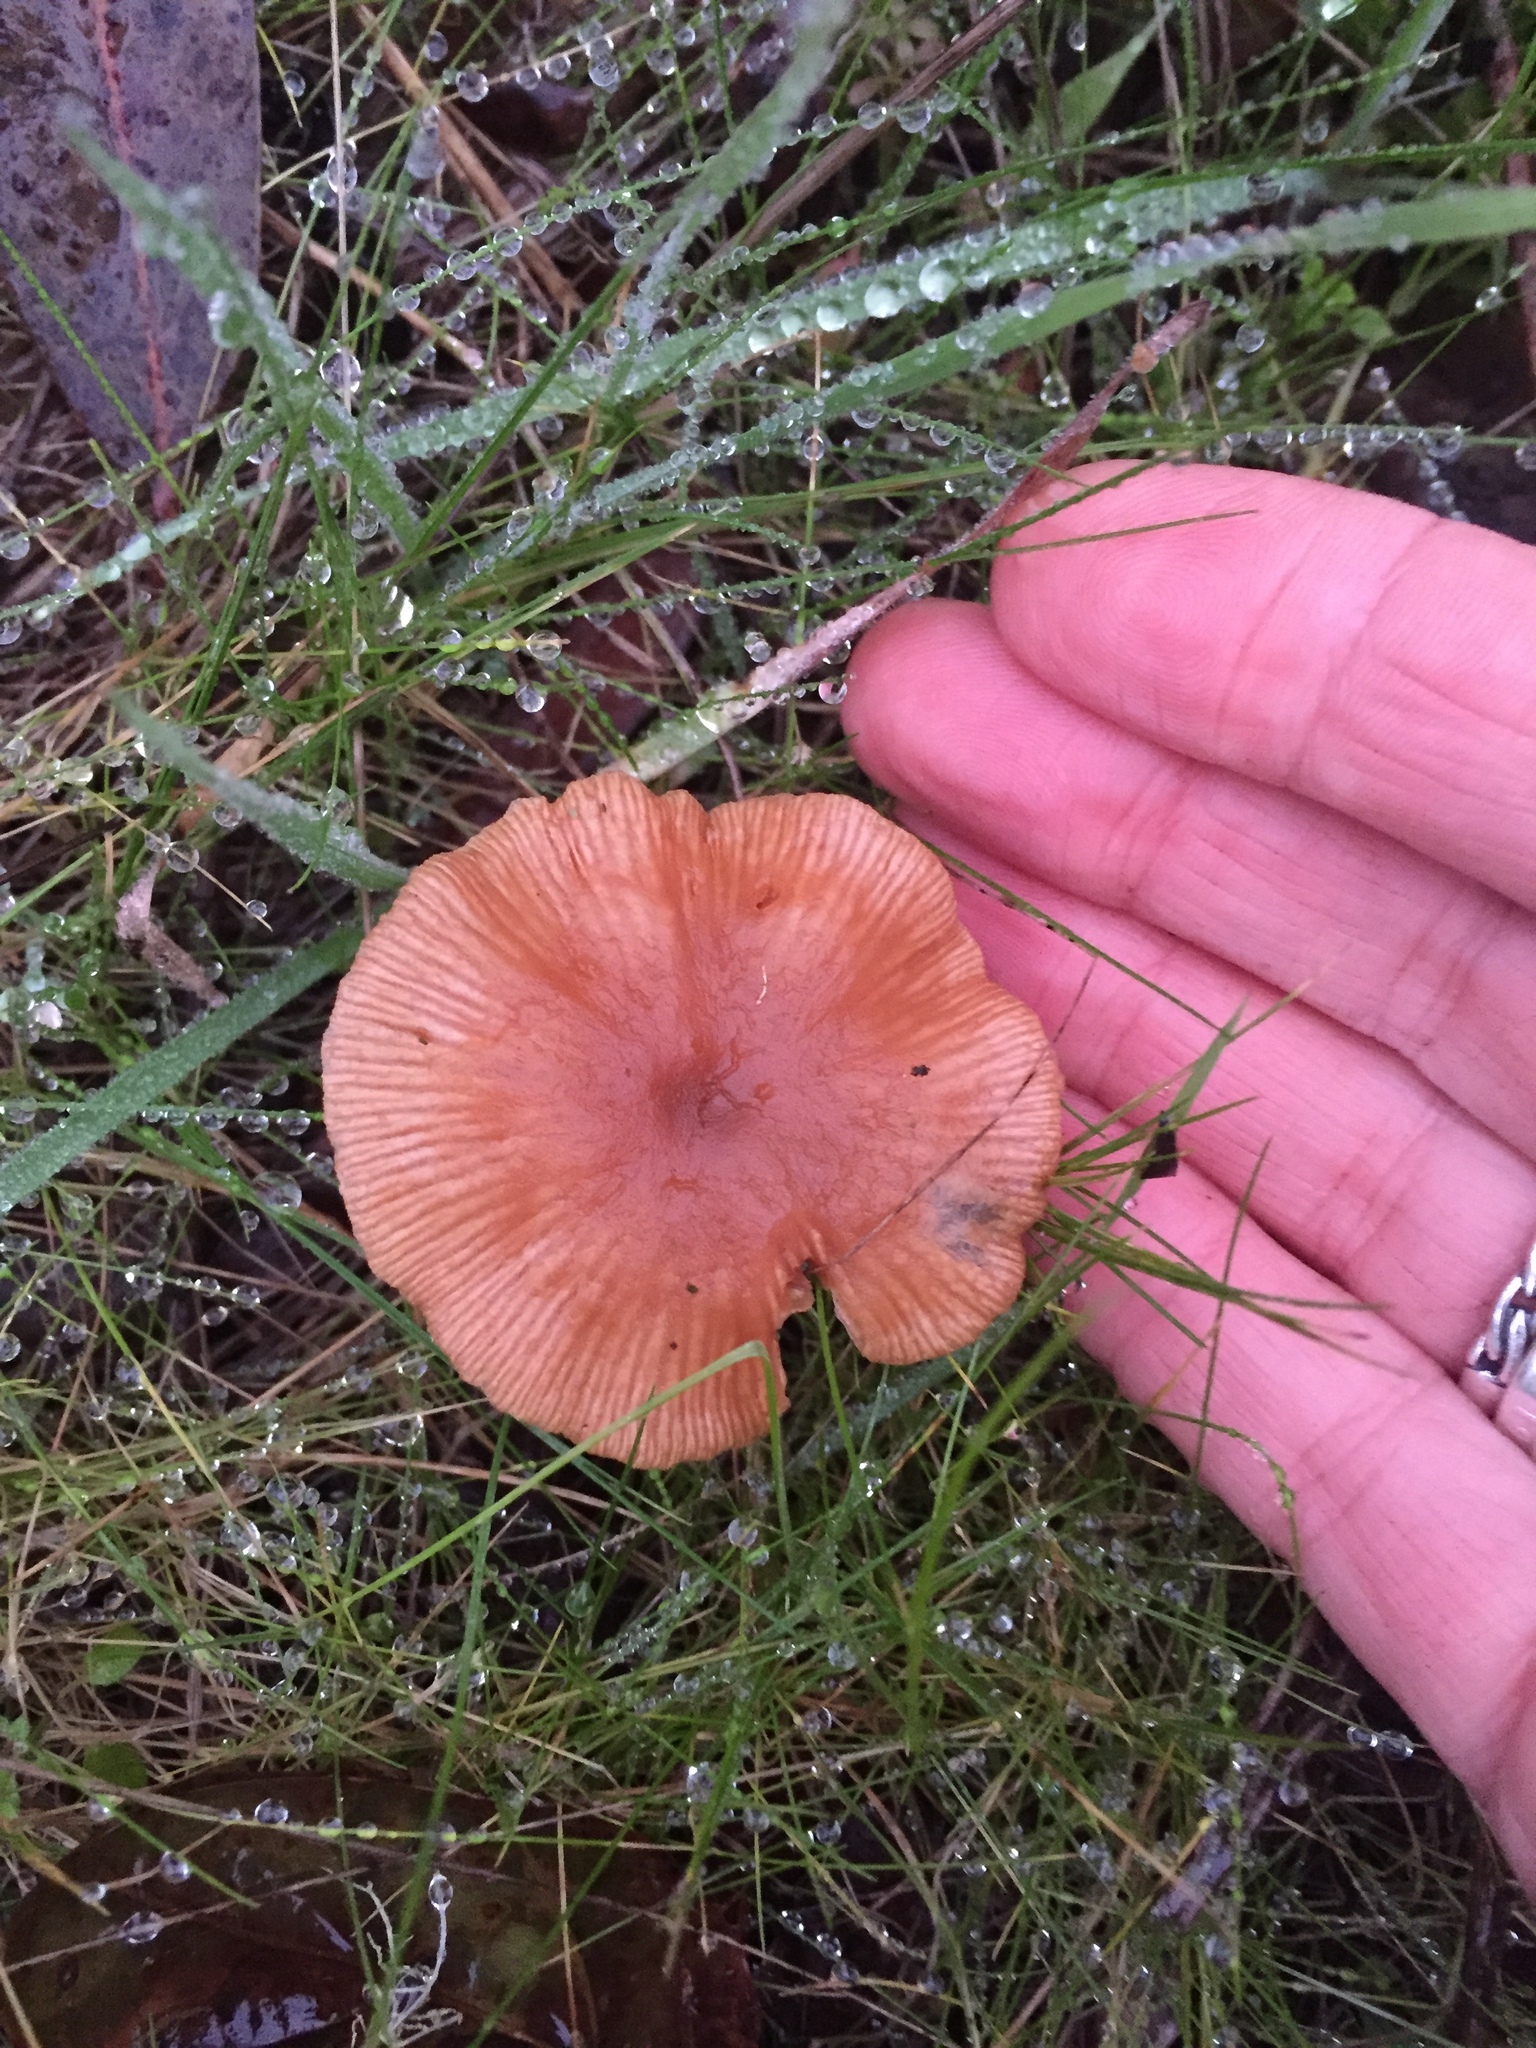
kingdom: Fungi
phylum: Basidiomycota
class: Agaricomycetes
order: Agaricales
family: Tubariaceae
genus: Tubaria
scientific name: Tubaria furfuracea
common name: Scurfy twiglet
